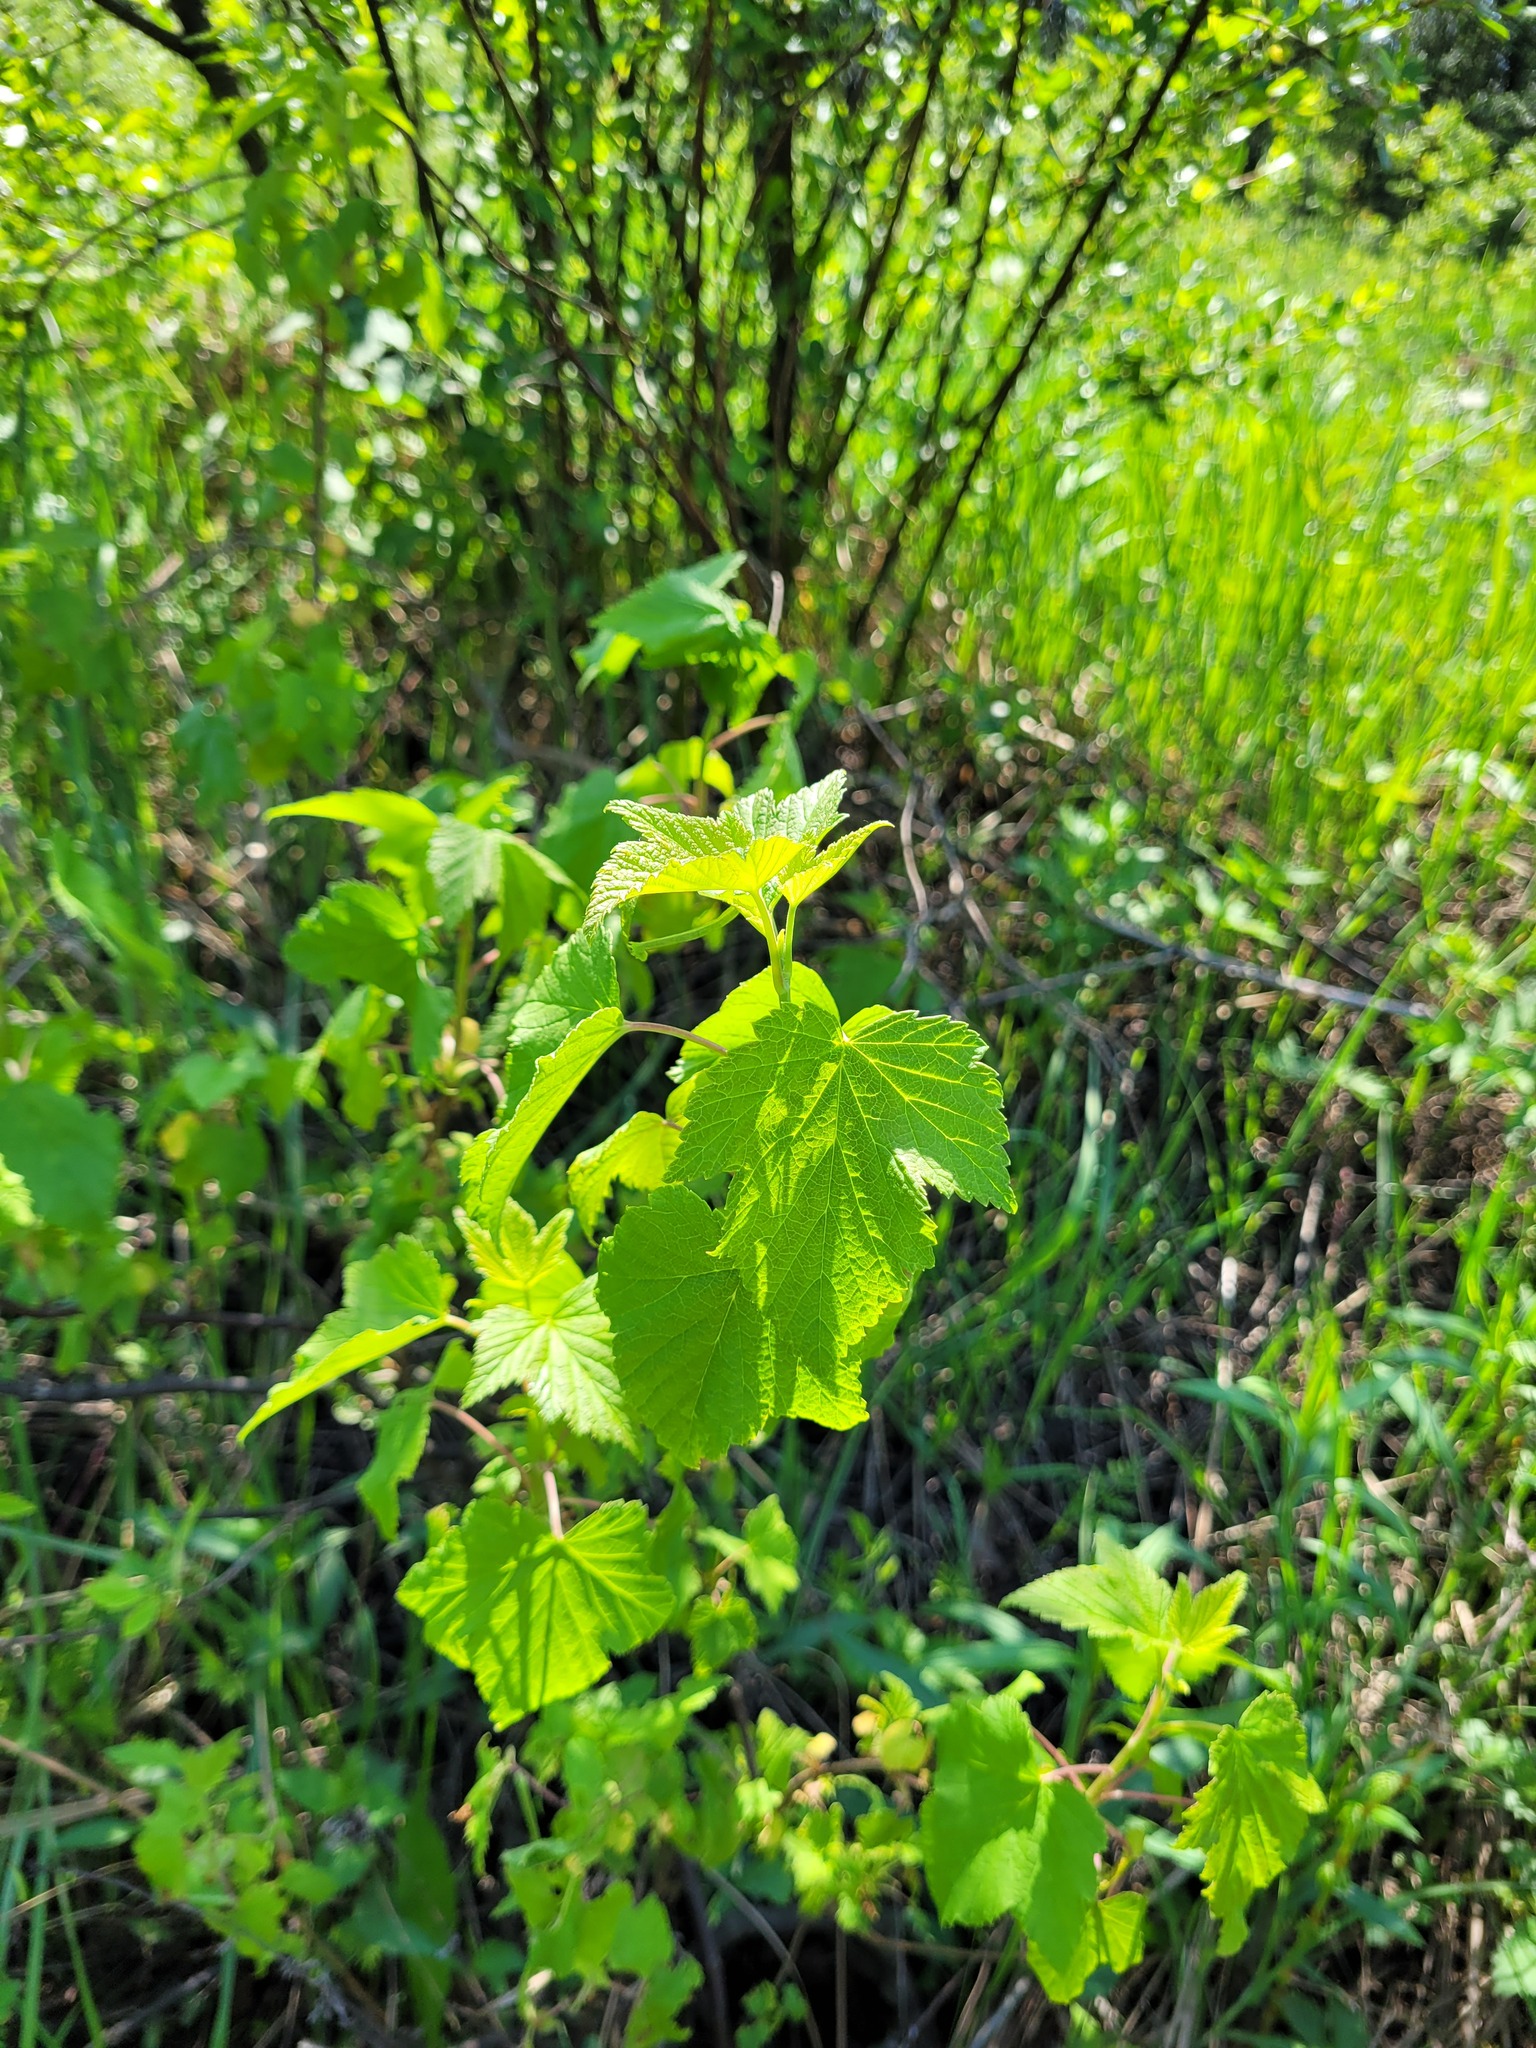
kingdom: Plantae
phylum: Tracheophyta
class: Magnoliopsida
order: Saxifragales
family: Grossulariaceae
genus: Ribes
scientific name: Ribes nigrum
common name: Black currant
